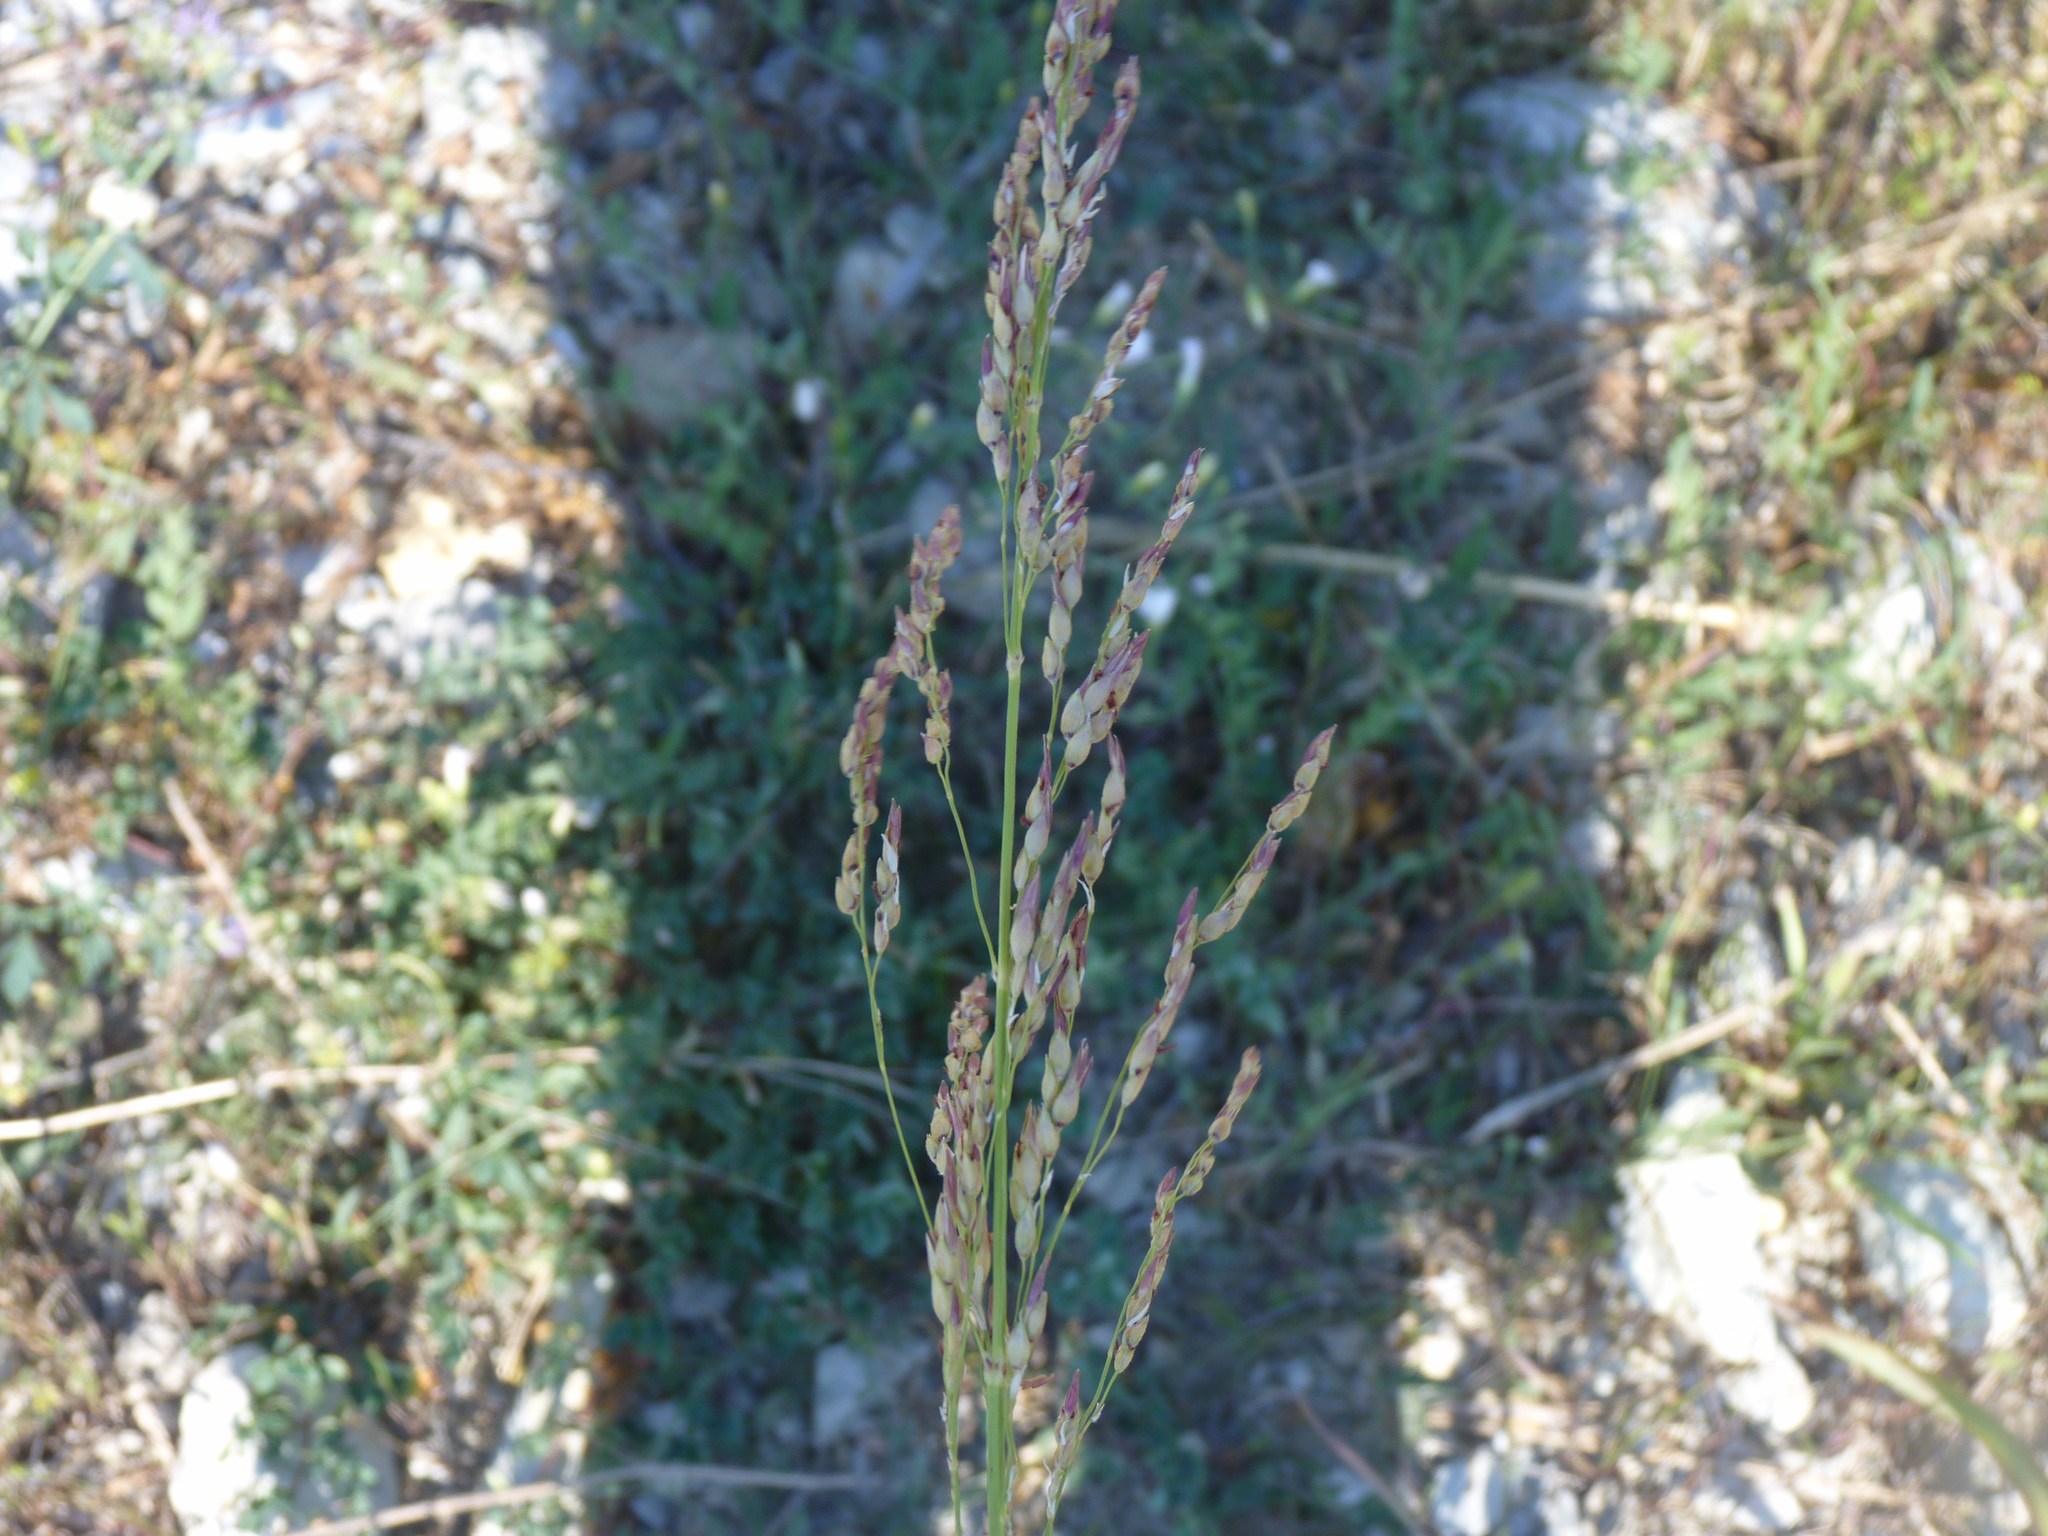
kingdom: Plantae
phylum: Tracheophyta
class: Liliopsida
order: Poales
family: Poaceae
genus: Sorghum
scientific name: Sorghum halepense
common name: Johnson-grass
